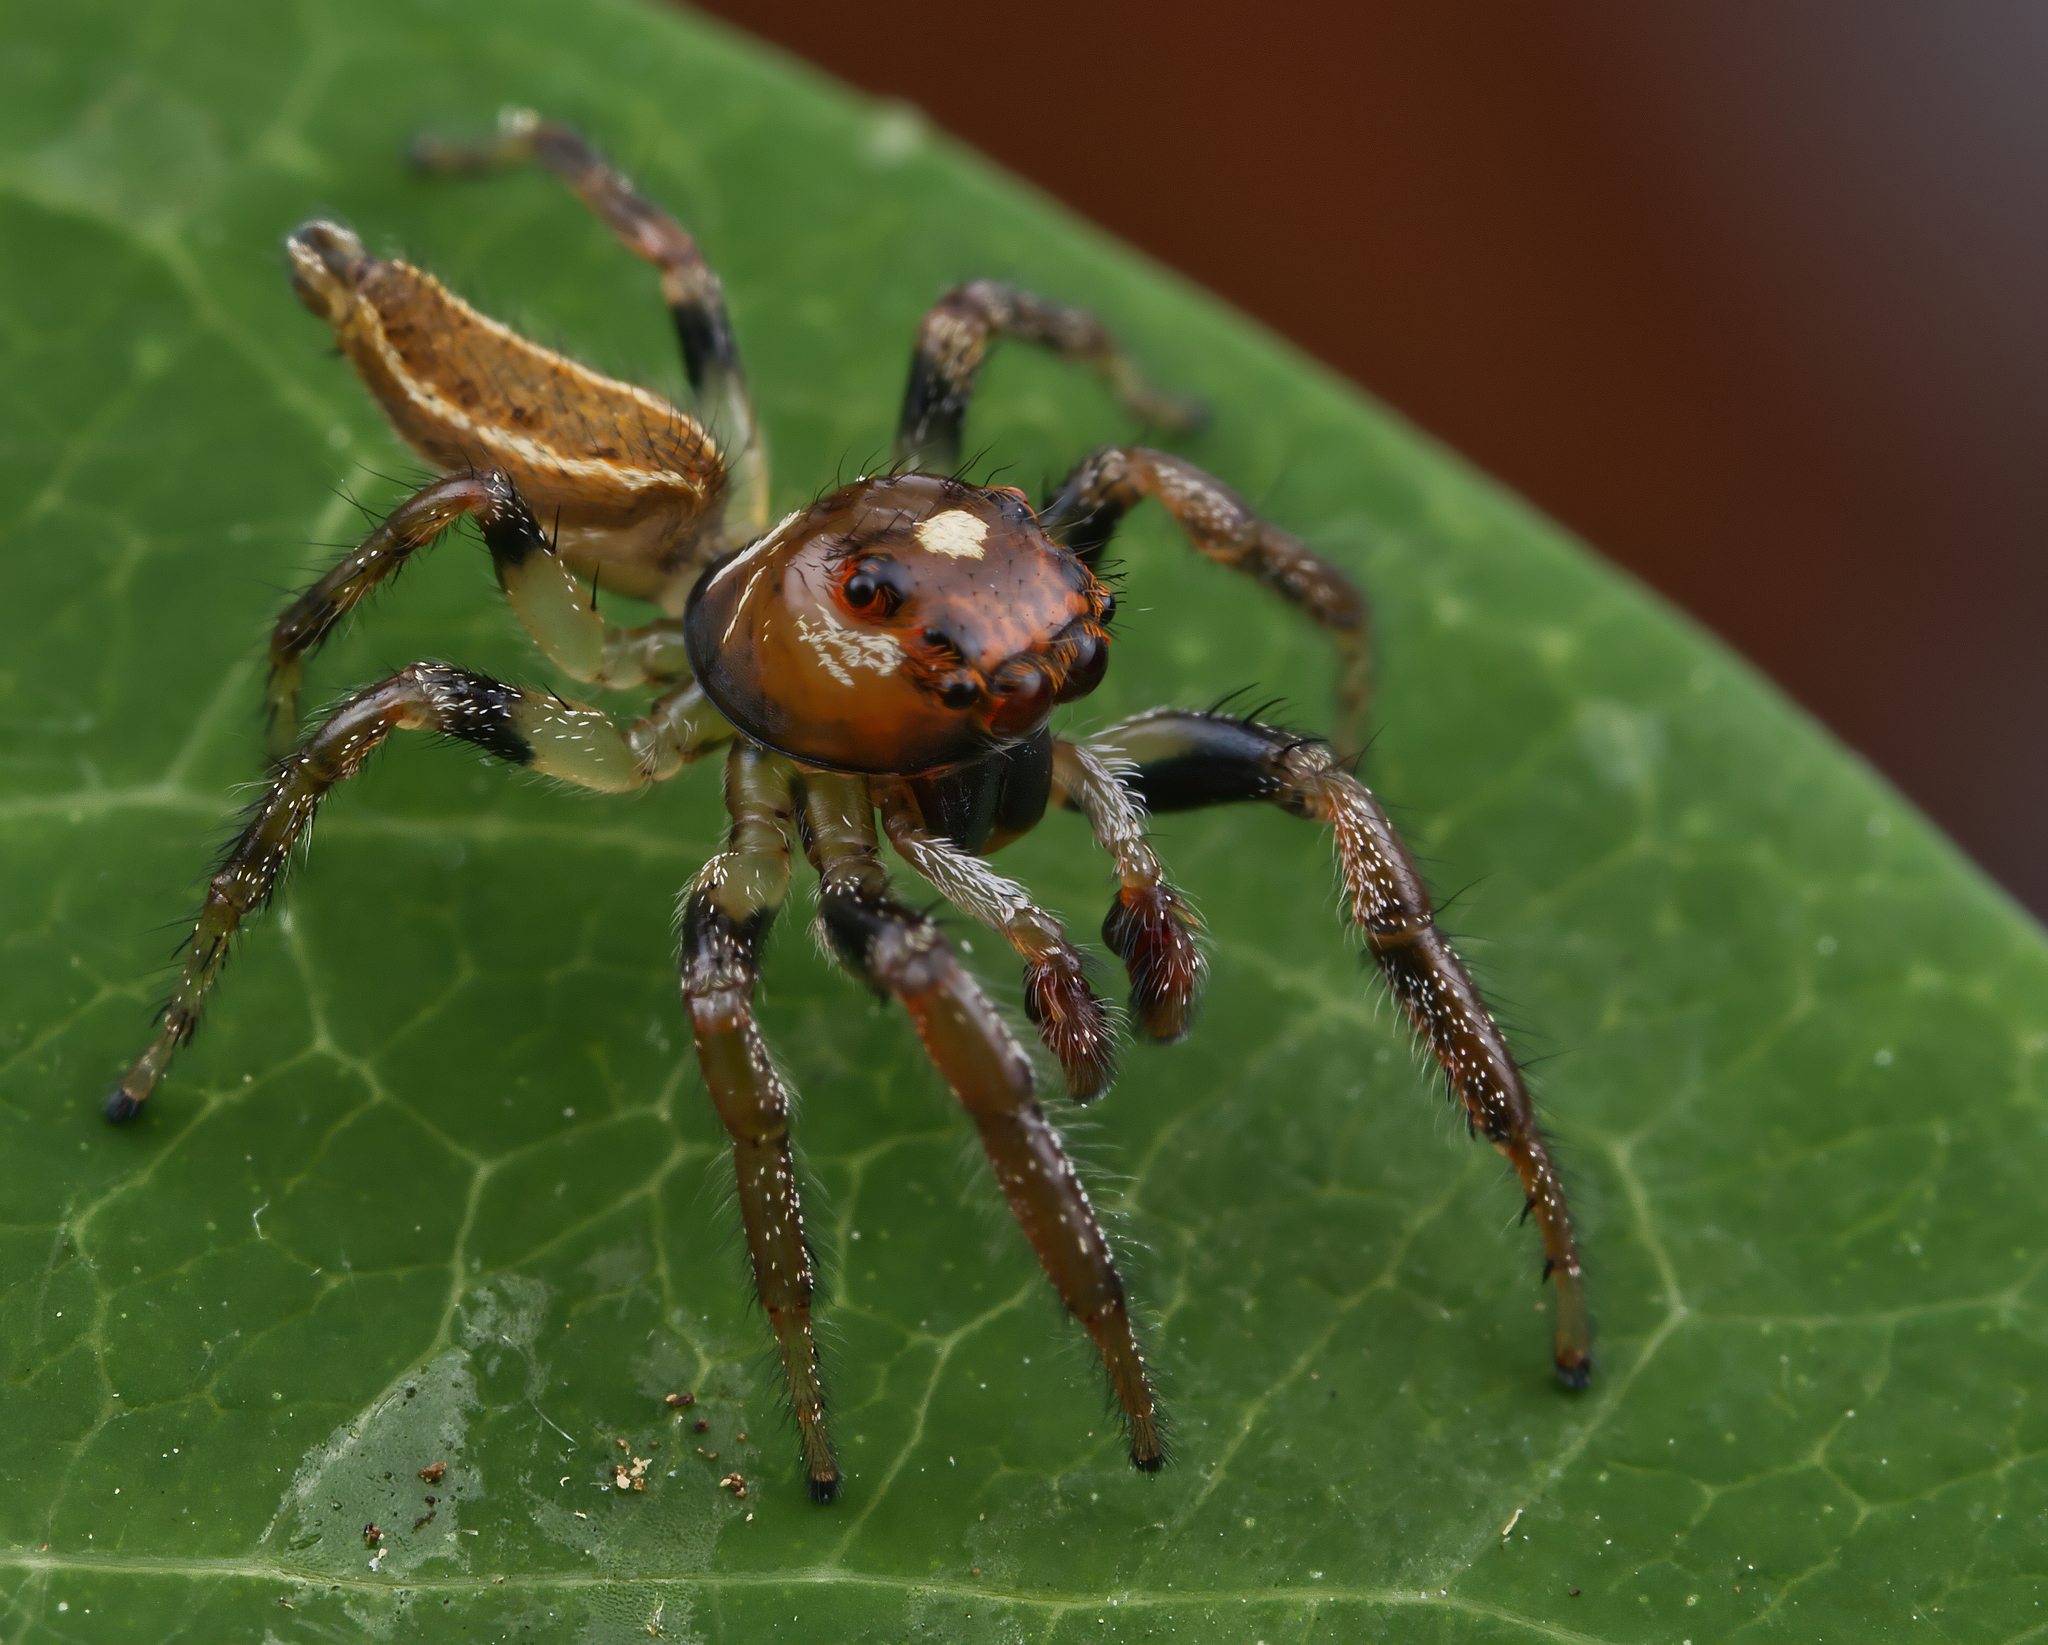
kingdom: Animalia
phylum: Arthropoda
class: Arachnida
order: Araneae
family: Salticidae
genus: Colonus
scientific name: Colonus sylvanus
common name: Jumping spiders
